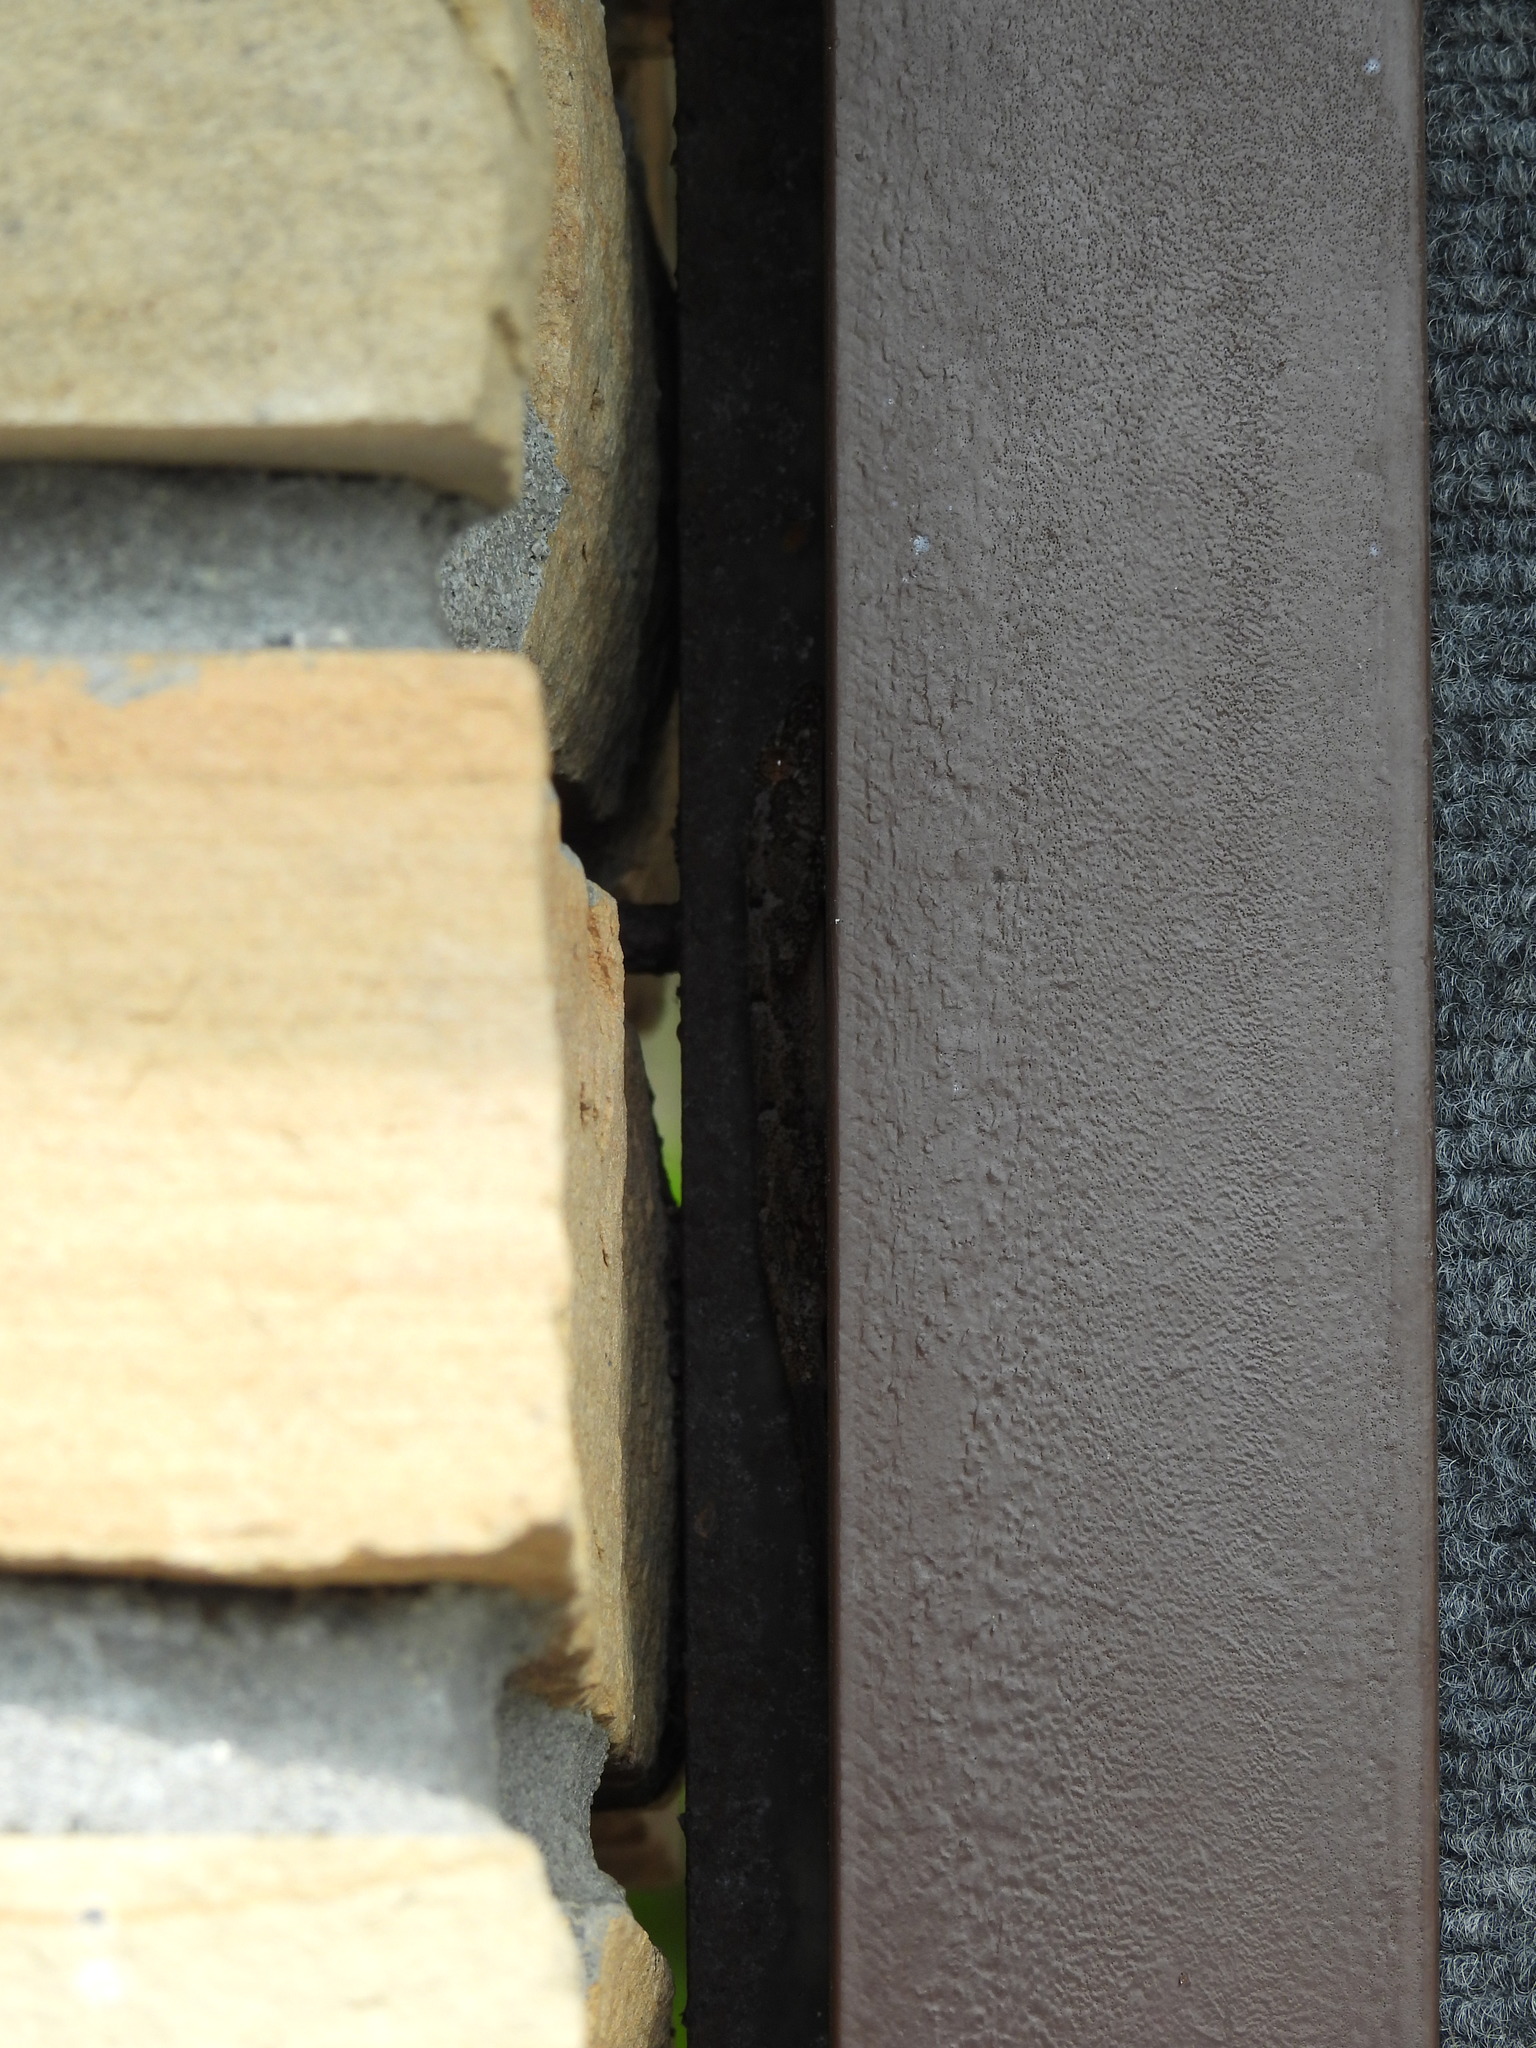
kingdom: Animalia
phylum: Chordata
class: Squamata
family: Gekkonidae
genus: Hemidactylus
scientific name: Hemidactylus mabouia
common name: House gecko
